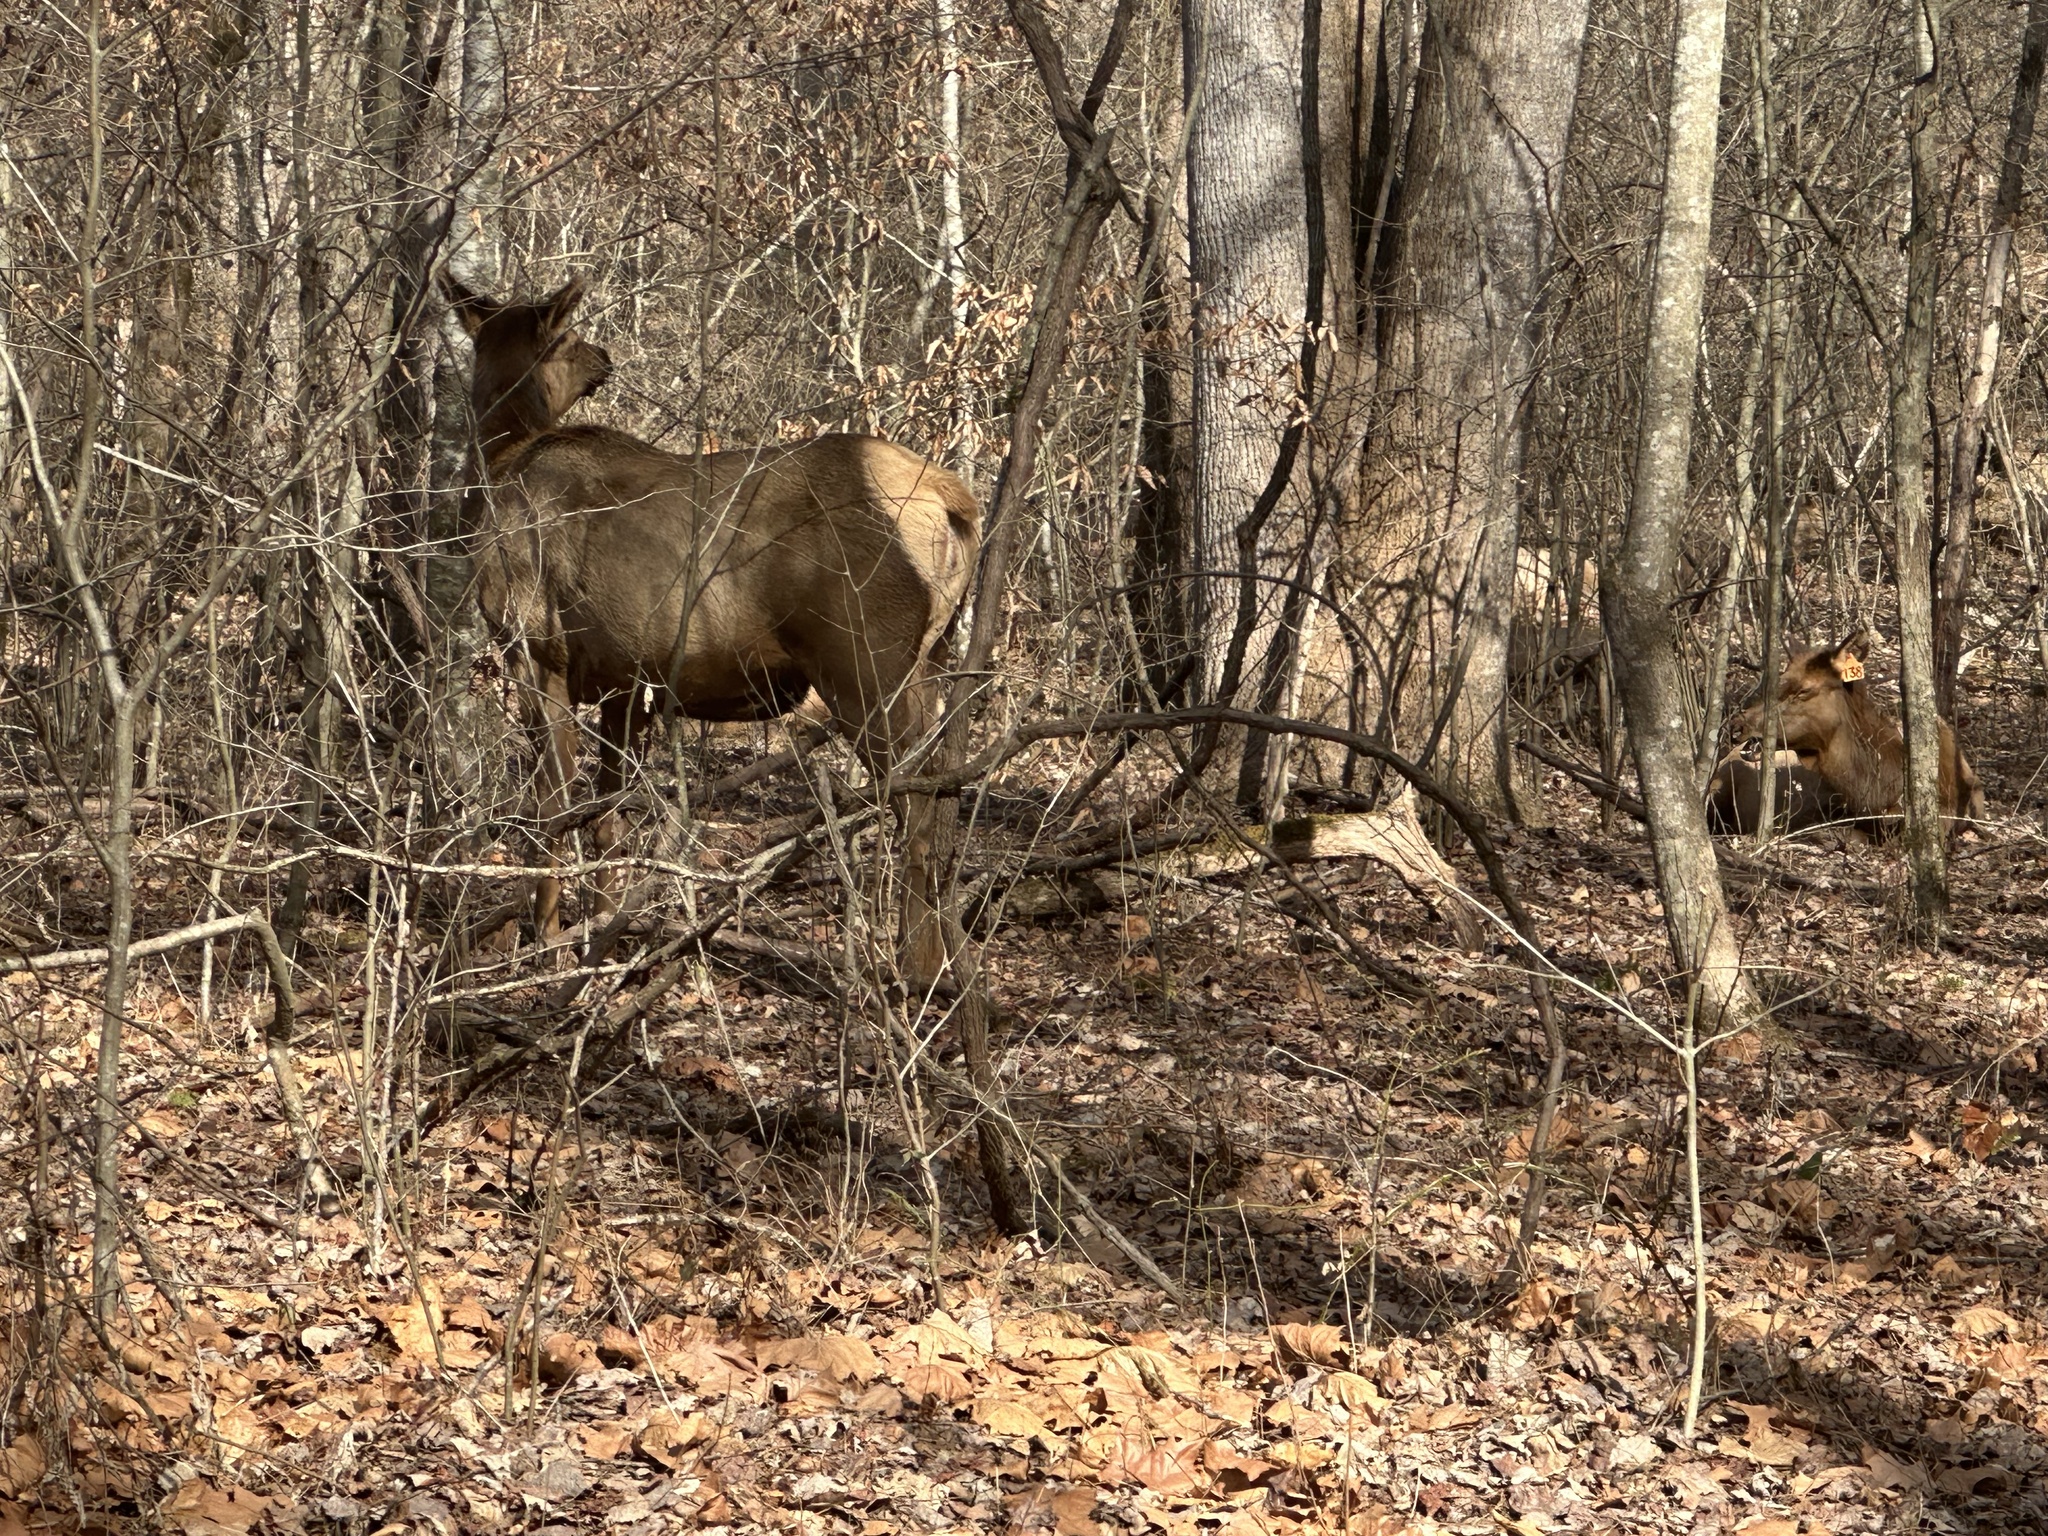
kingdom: Animalia
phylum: Chordata
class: Mammalia
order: Artiodactyla
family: Cervidae
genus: Cervus
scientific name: Cervus elaphus
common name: Red deer
